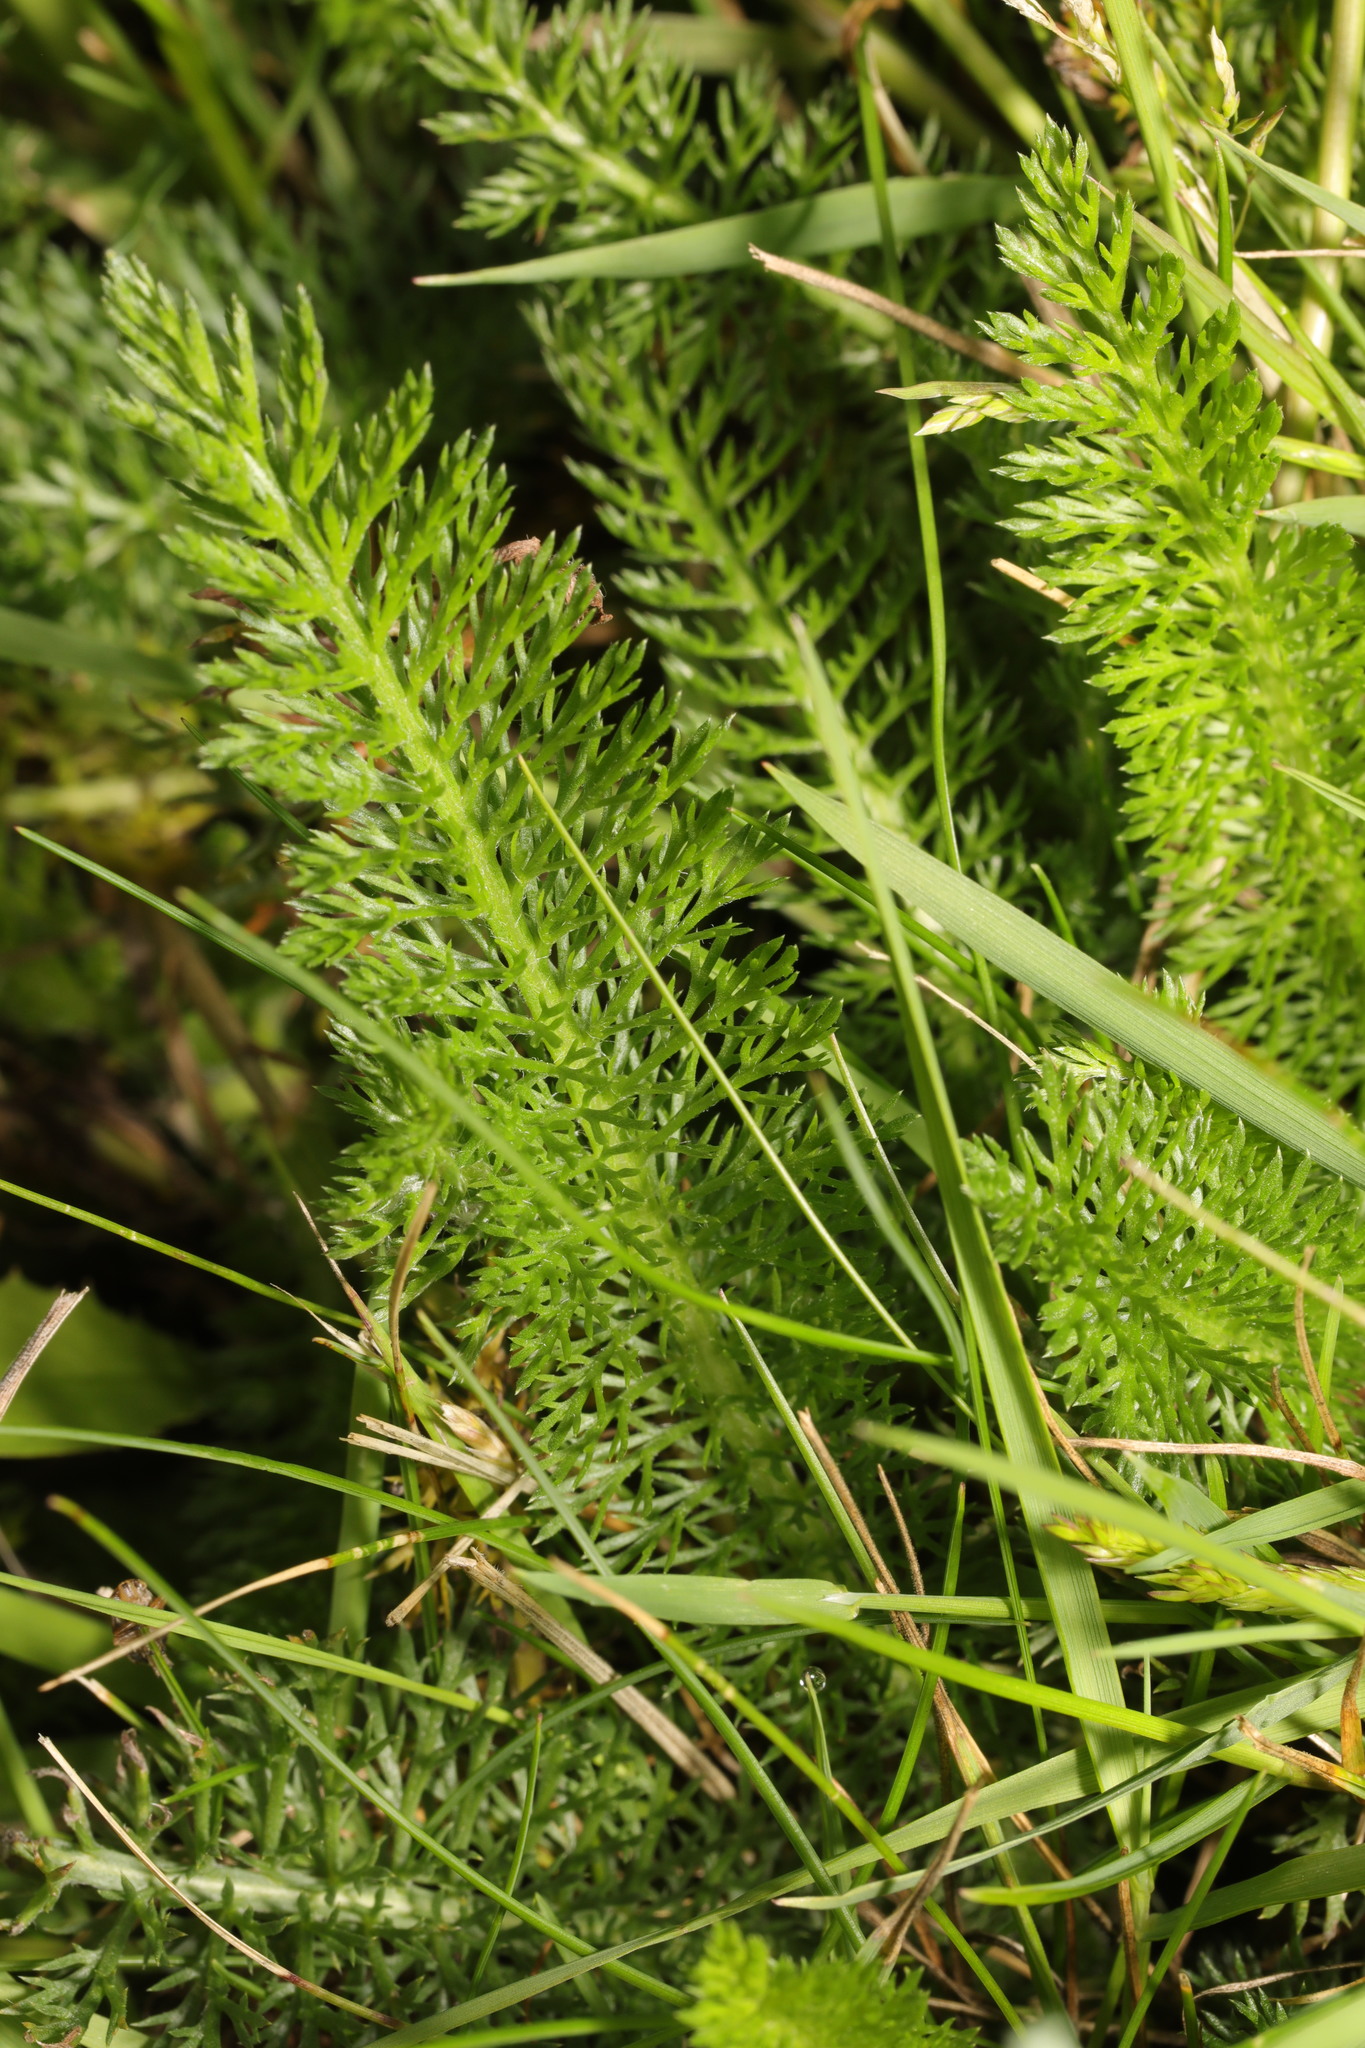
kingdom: Plantae
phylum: Tracheophyta
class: Magnoliopsida
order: Asterales
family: Asteraceae
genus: Achillea
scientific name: Achillea millefolium
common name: Yarrow
